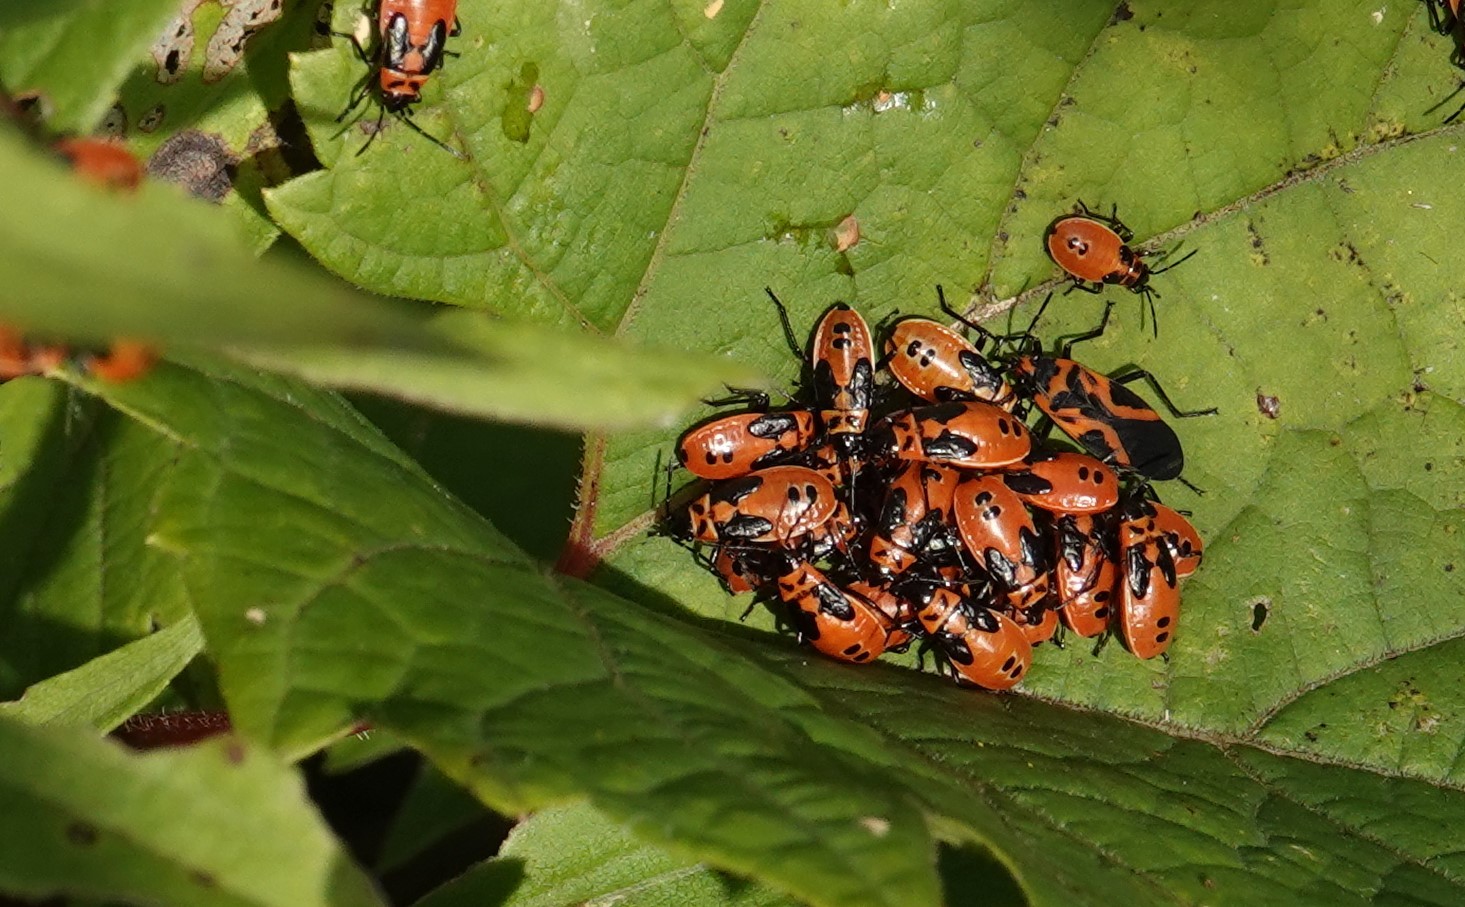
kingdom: Animalia
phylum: Arthropoda
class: Insecta
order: Hemiptera
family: Lygaeidae
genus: Lygaeus
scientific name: Lygaeus turcicus
